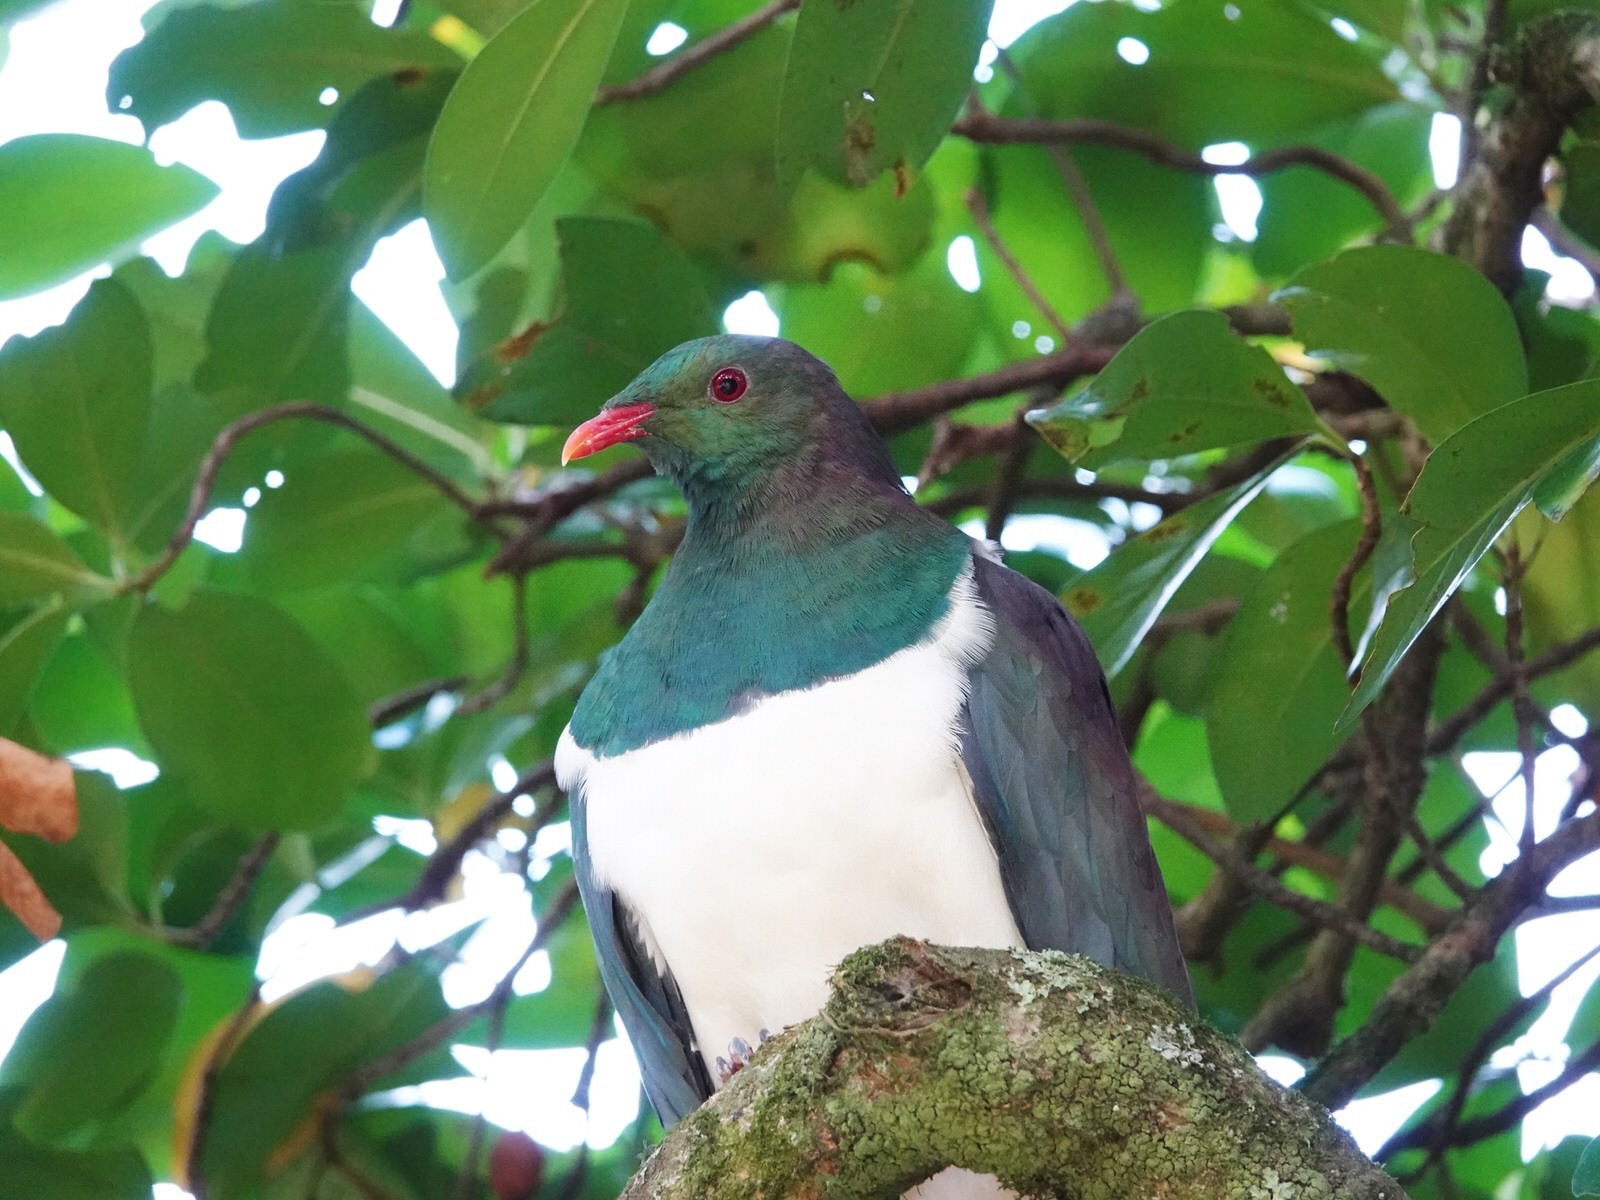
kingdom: Animalia
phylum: Chordata
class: Aves
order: Columbiformes
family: Columbidae
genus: Hemiphaga
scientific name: Hemiphaga novaeseelandiae
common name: New zealand pigeon
